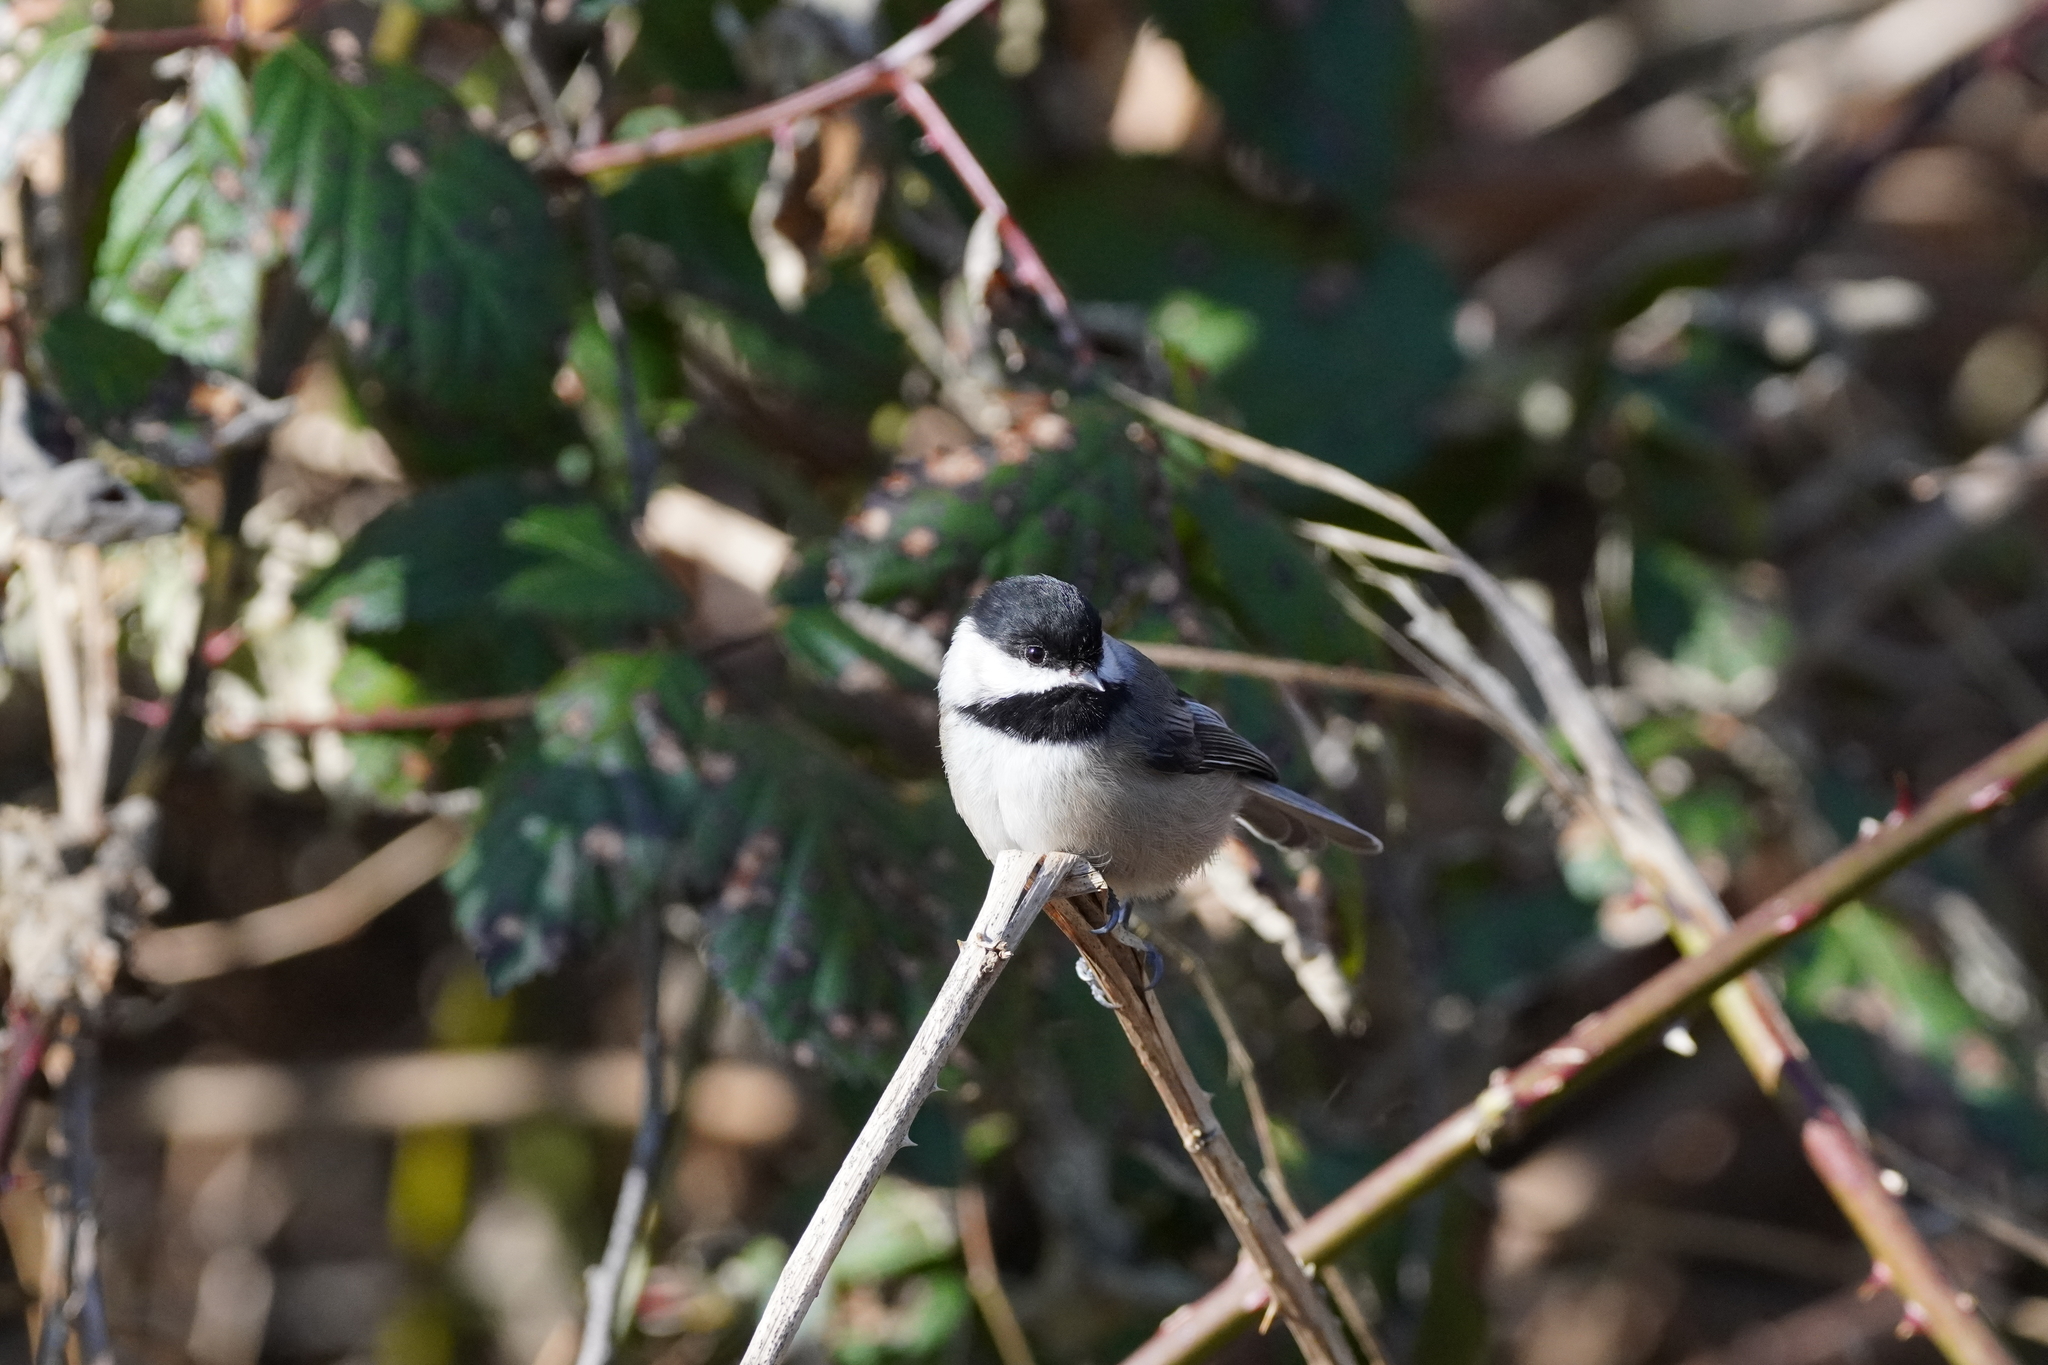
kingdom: Animalia
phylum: Chordata
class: Aves
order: Passeriformes
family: Paridae
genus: Poecile
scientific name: Poecile atricapillus
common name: Black-capped chickadee
